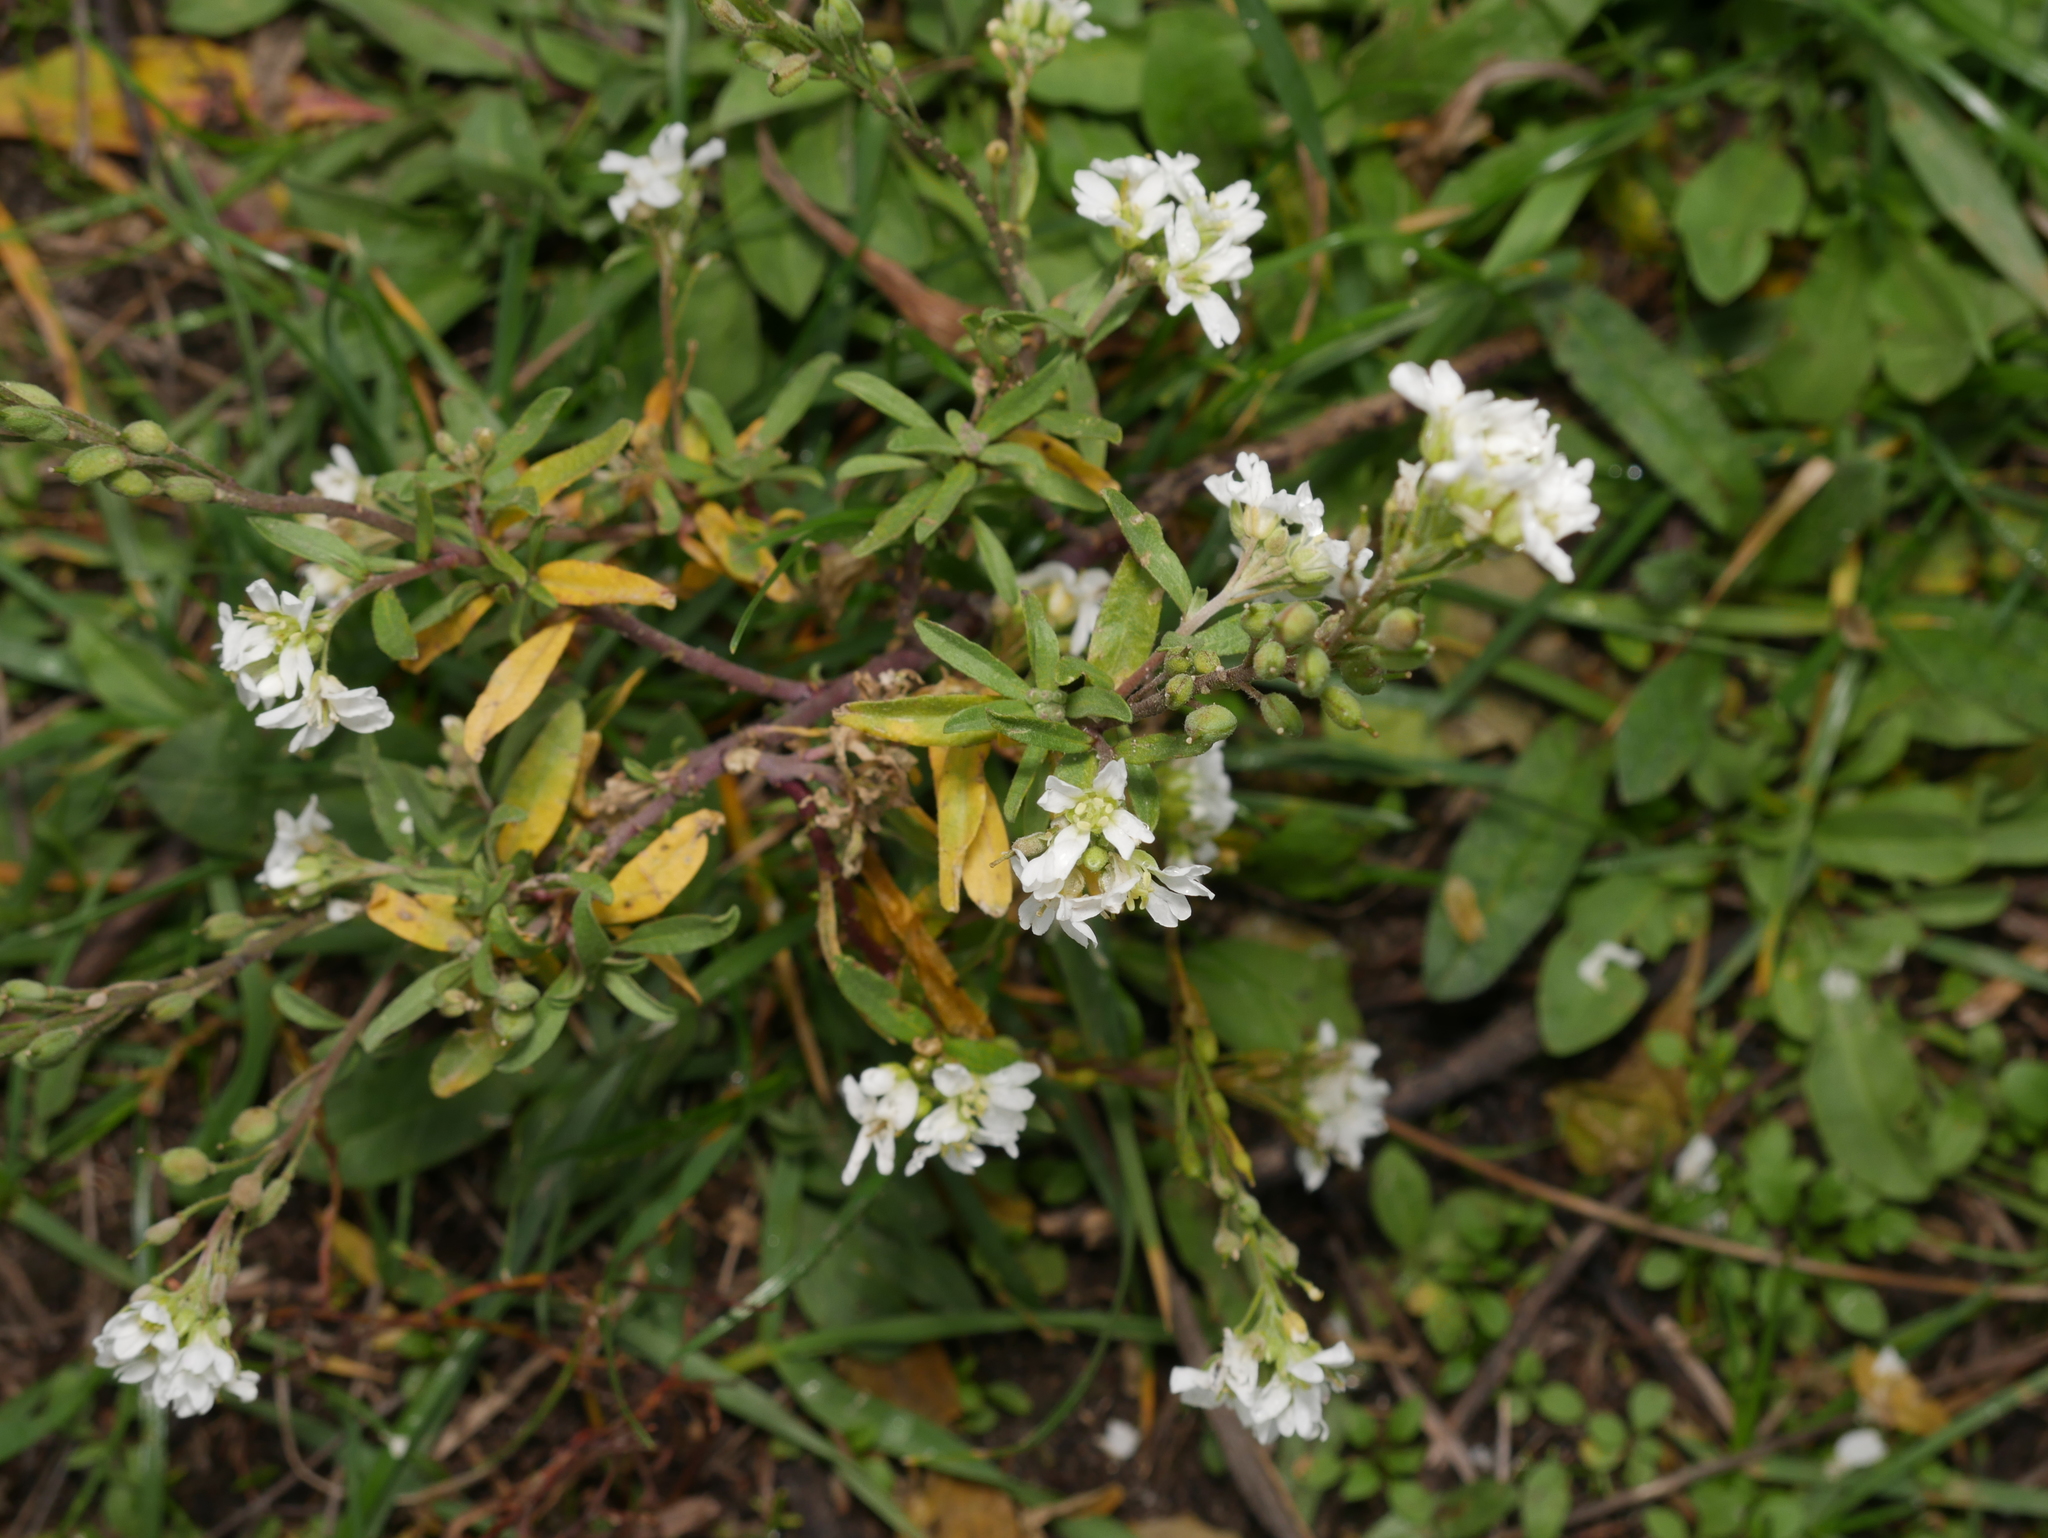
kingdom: Plantae
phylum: Tracheophyta
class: Magnoliopsida
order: Brassicales
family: Brassicaceae
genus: Berteroa
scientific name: Berteroa incana
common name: Hoary alison
